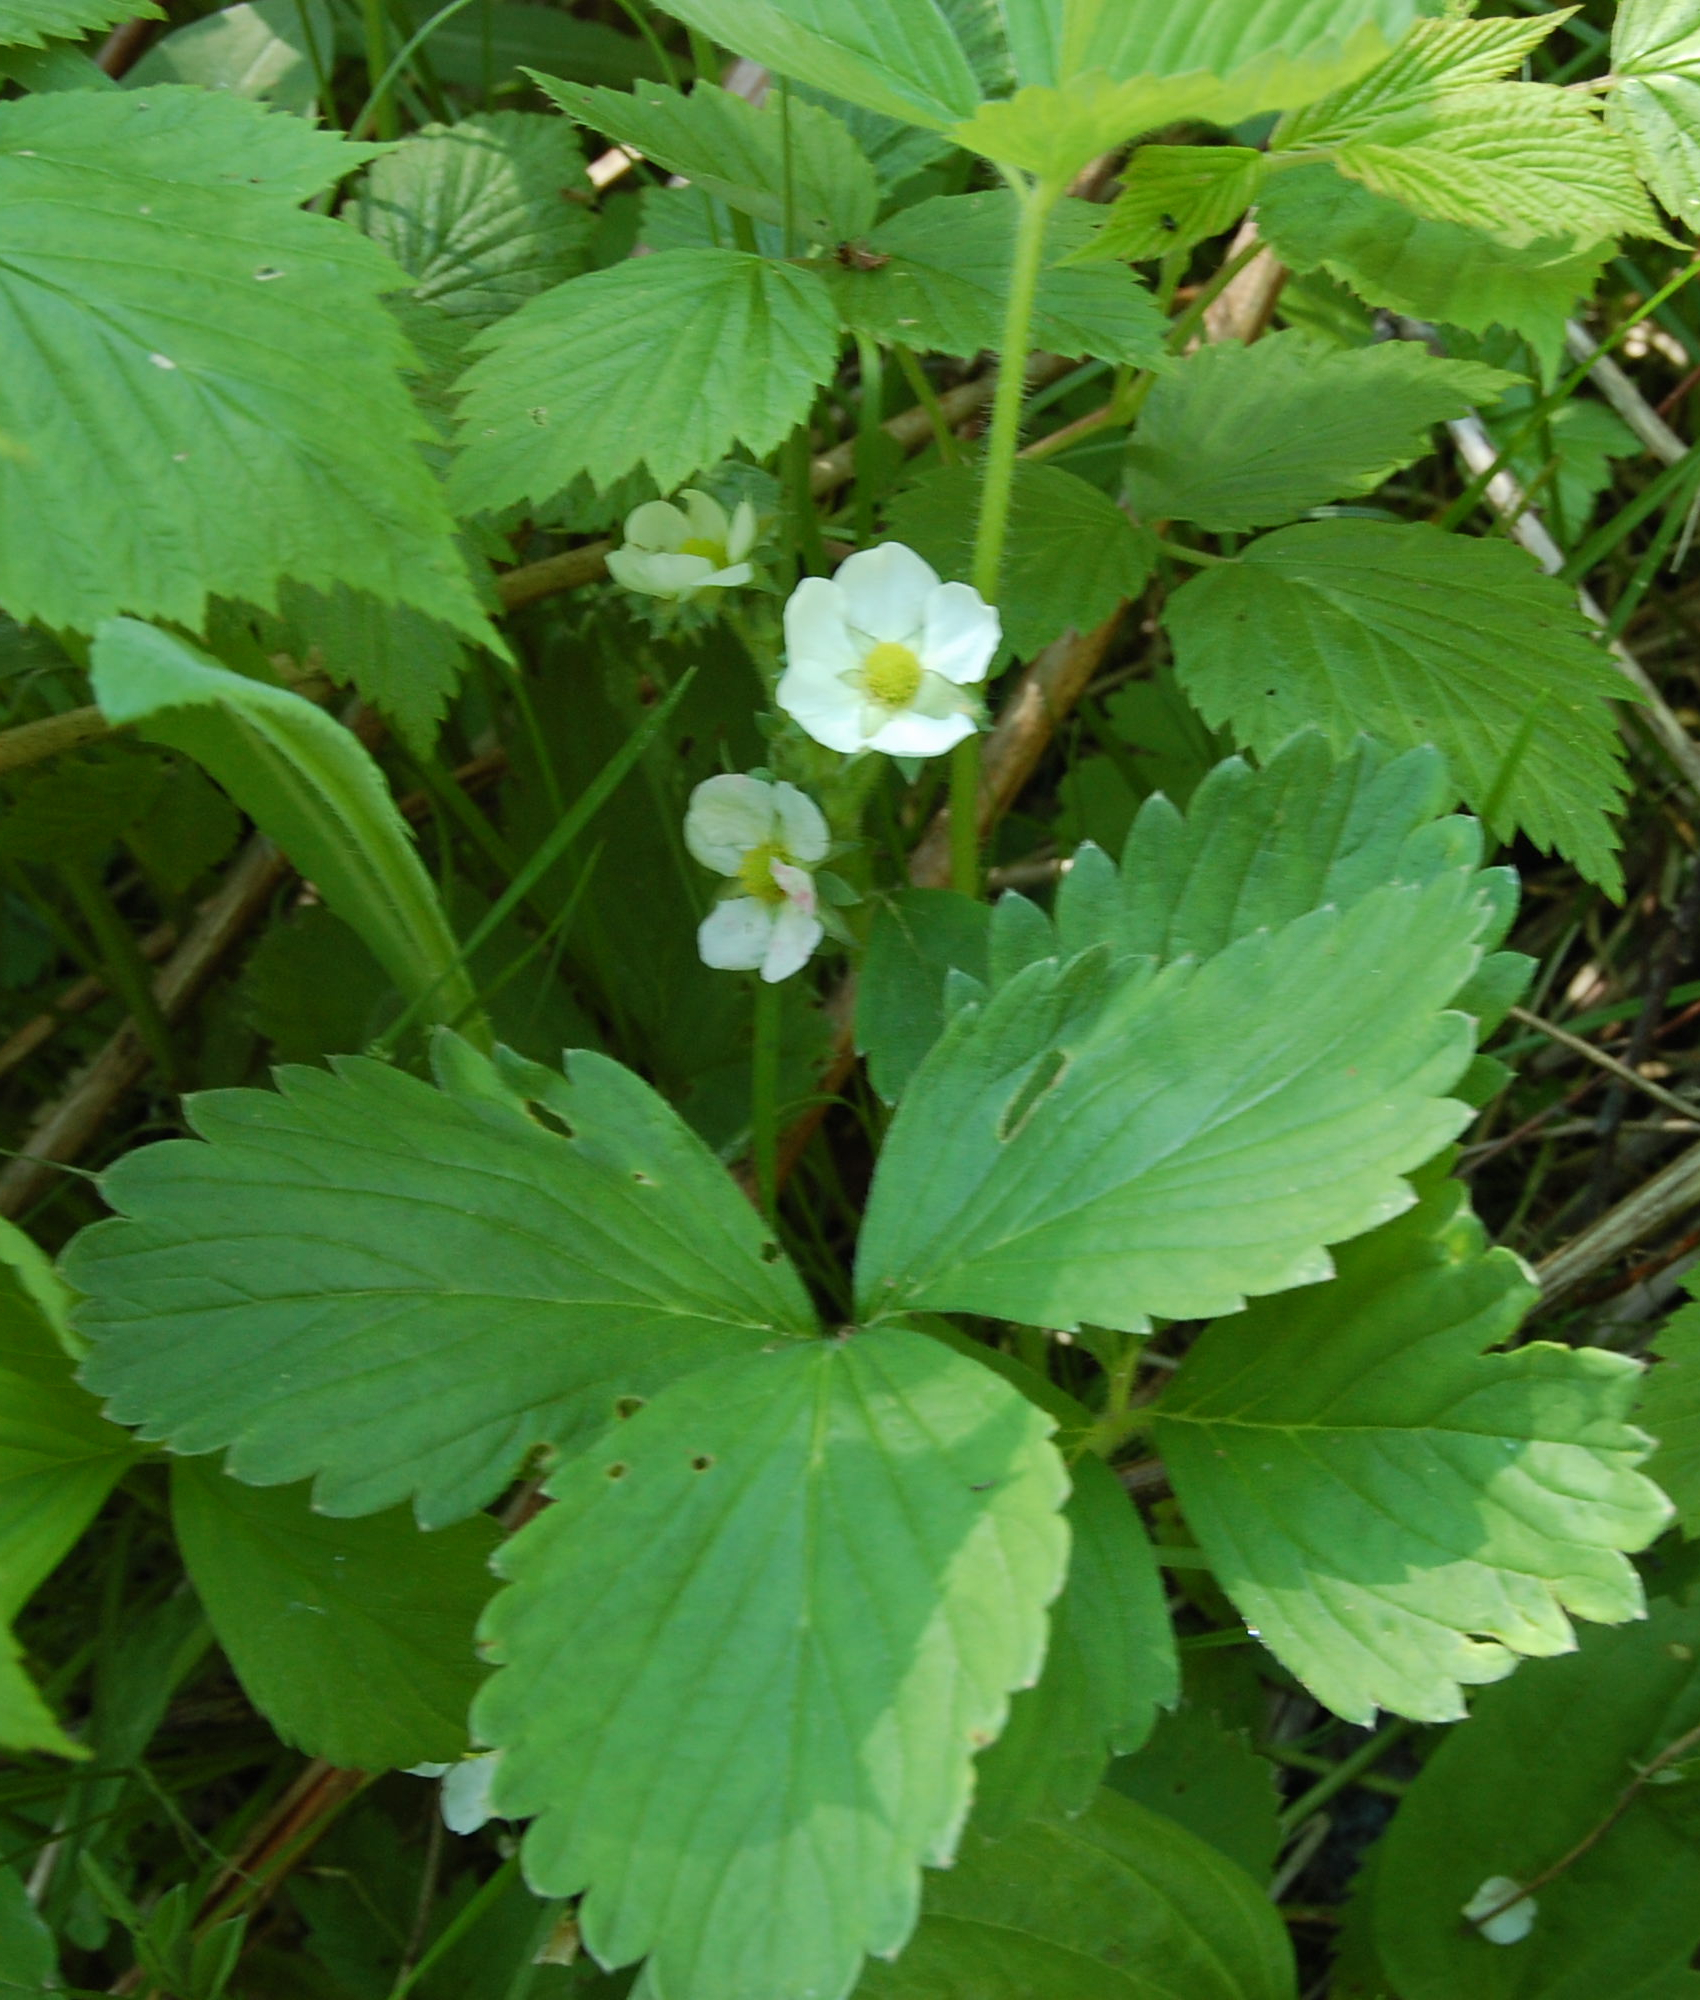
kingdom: Plantae
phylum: Tracheophyta
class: Magnoliopsida
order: Rosales
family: Rosaceae
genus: Fragaria
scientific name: Fragaria ananassa
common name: Garden strawberry
